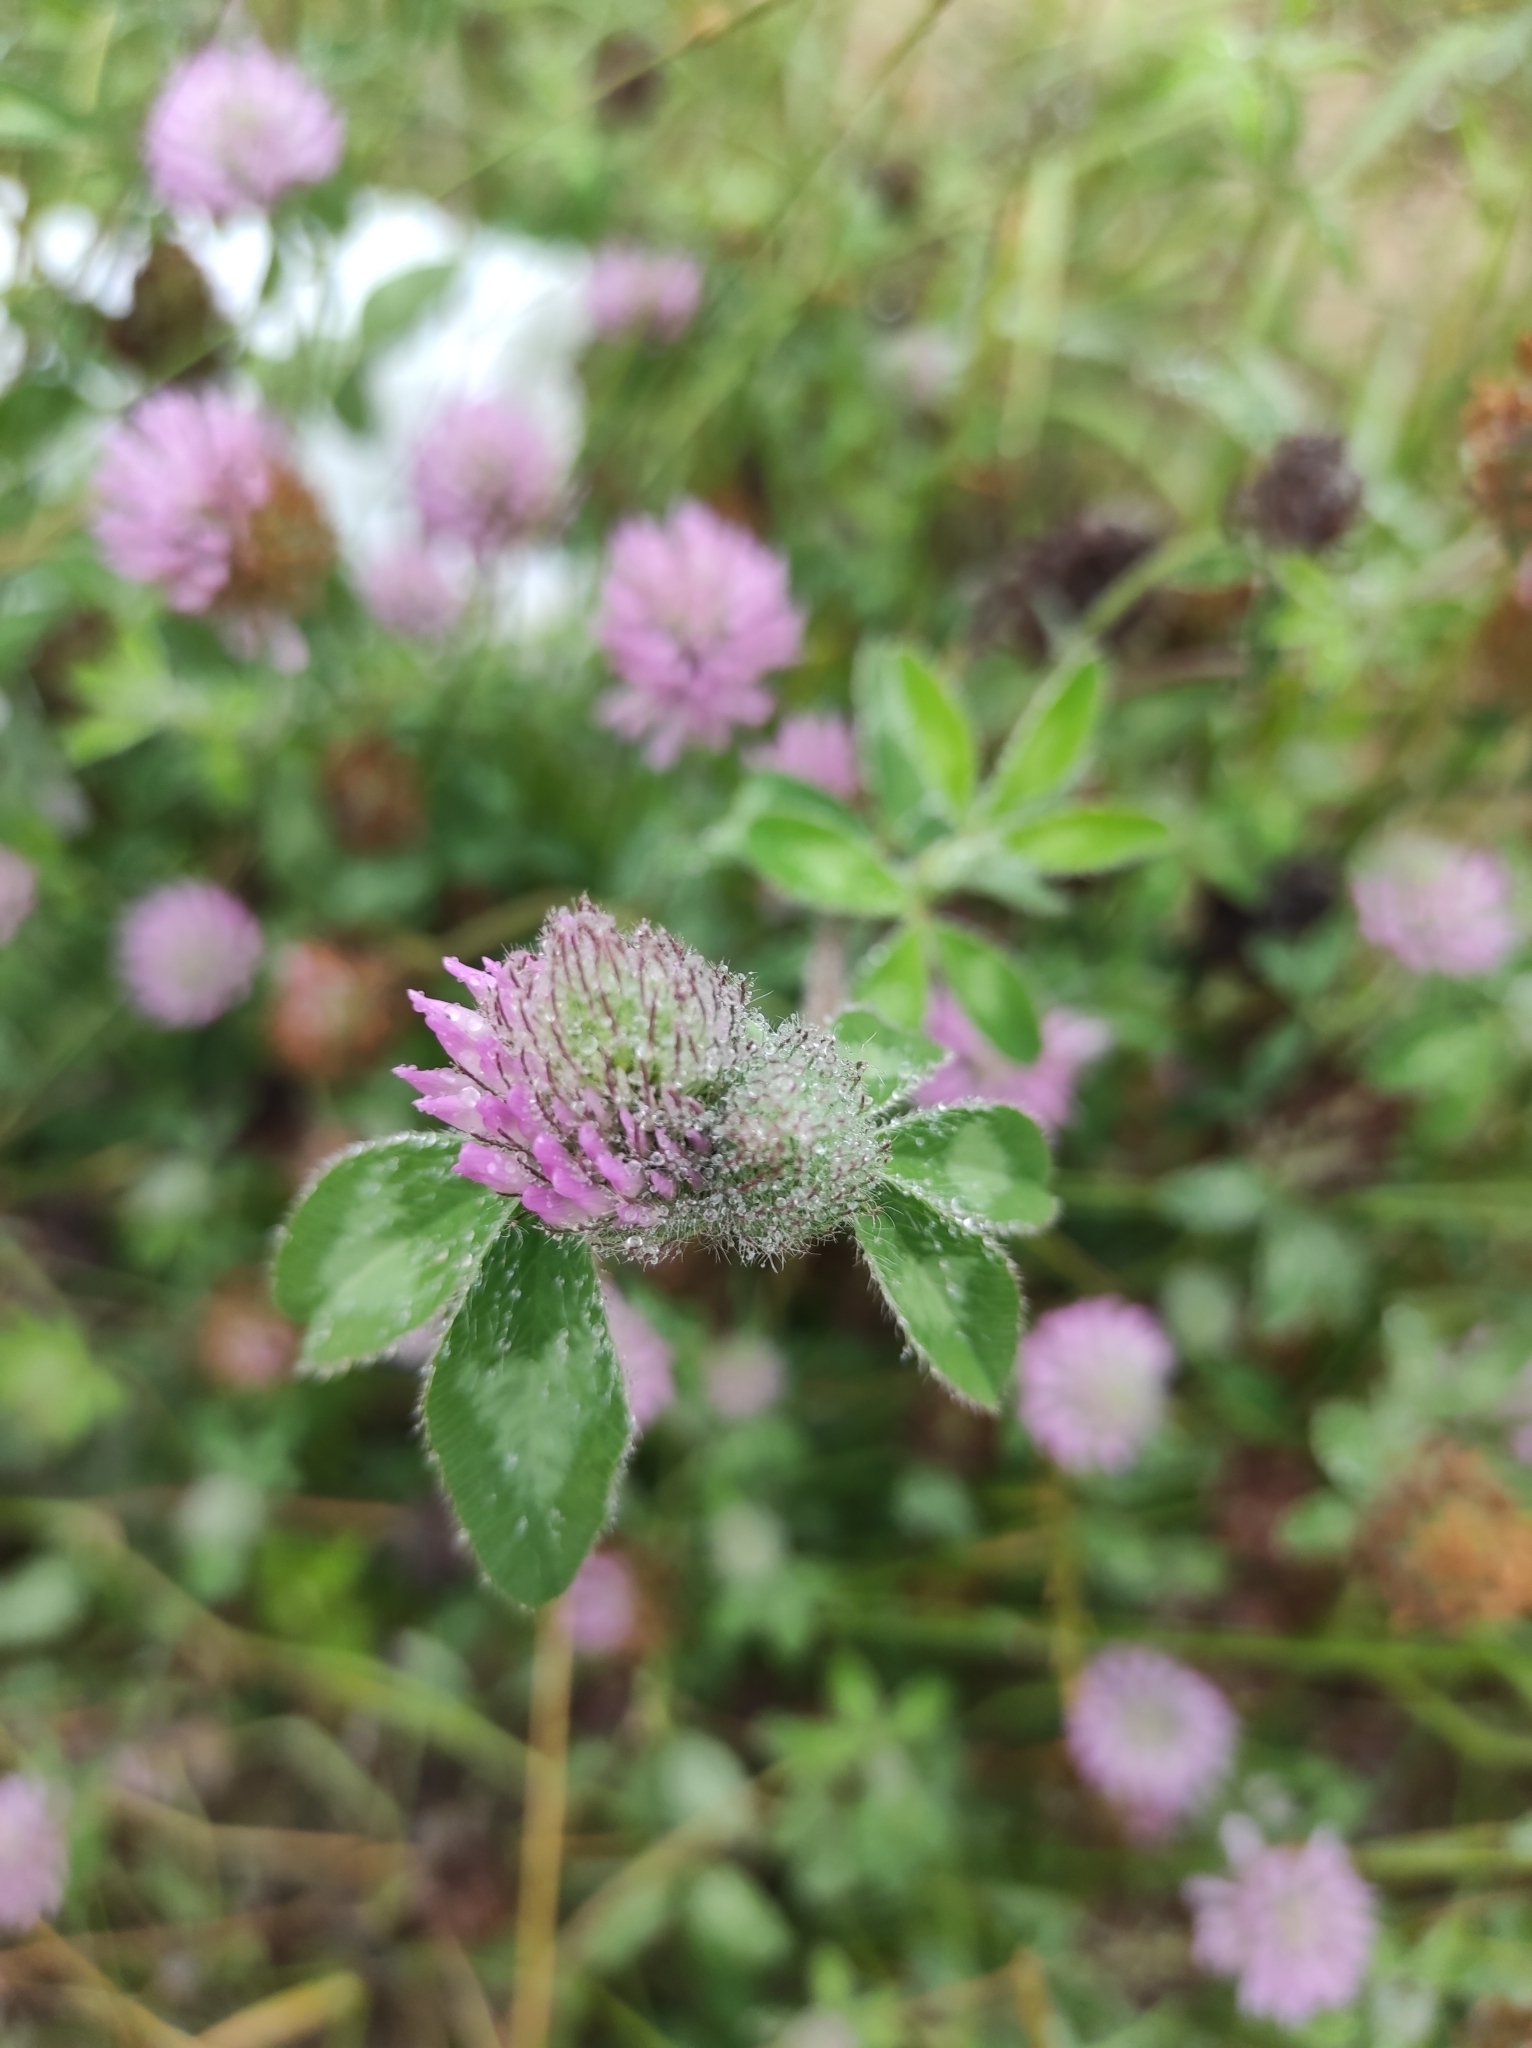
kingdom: Plantae
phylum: Tracheophyta
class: Magnoliopsida
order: Fabales
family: Fabaceae
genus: Trifolium
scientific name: Trifolium pratense
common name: Red clover
